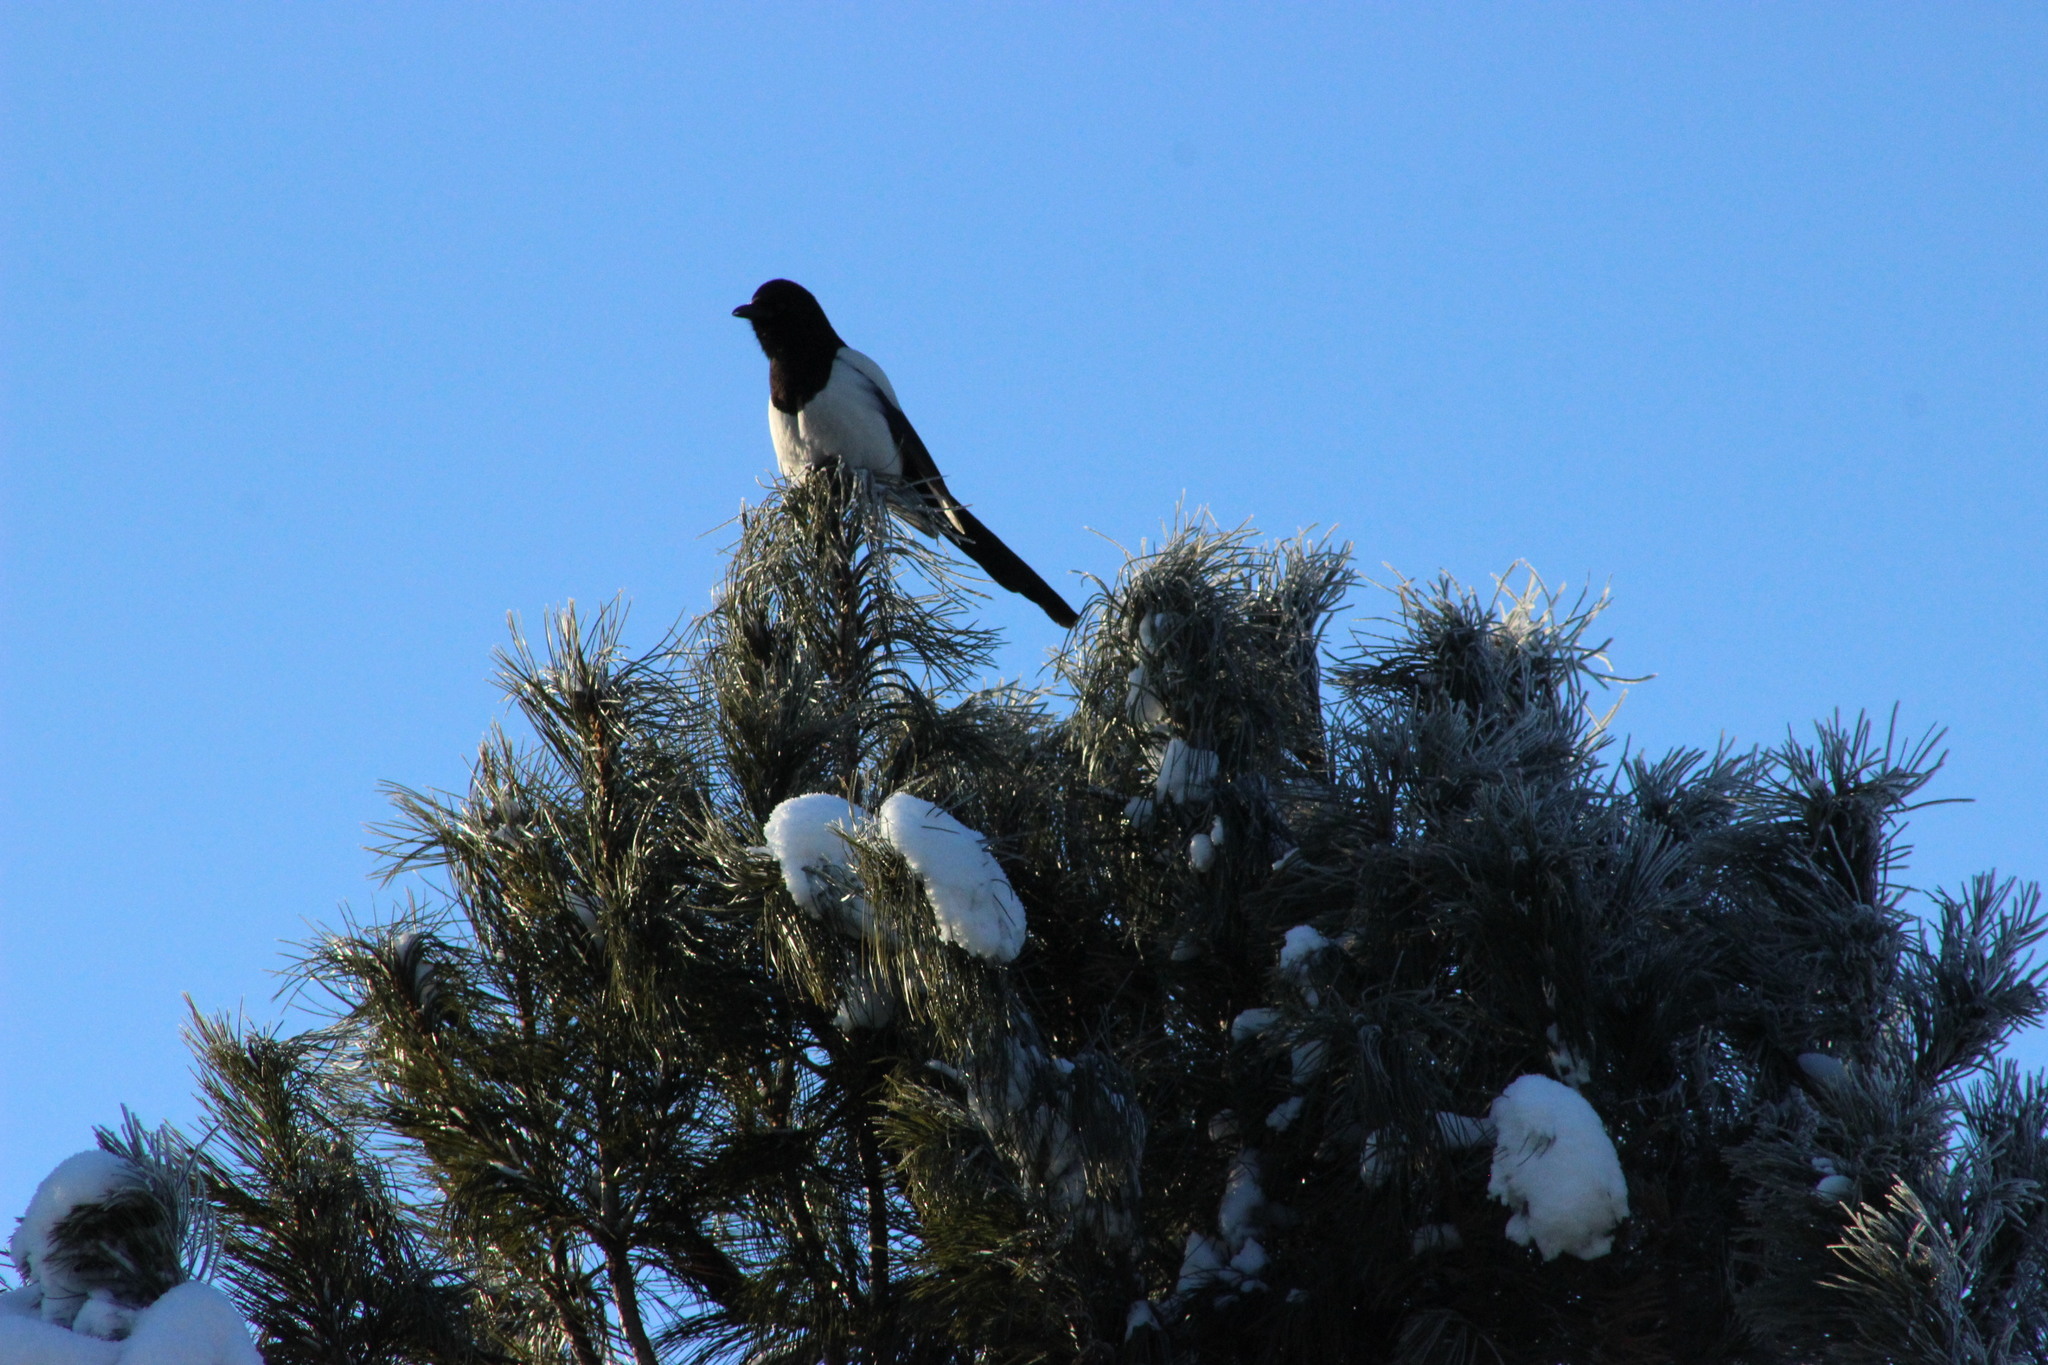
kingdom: Animalia
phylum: Chordata
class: Aves
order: Passeriformes
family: Corvidae
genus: Pica
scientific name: Pica pica
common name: Eurasian magpie
